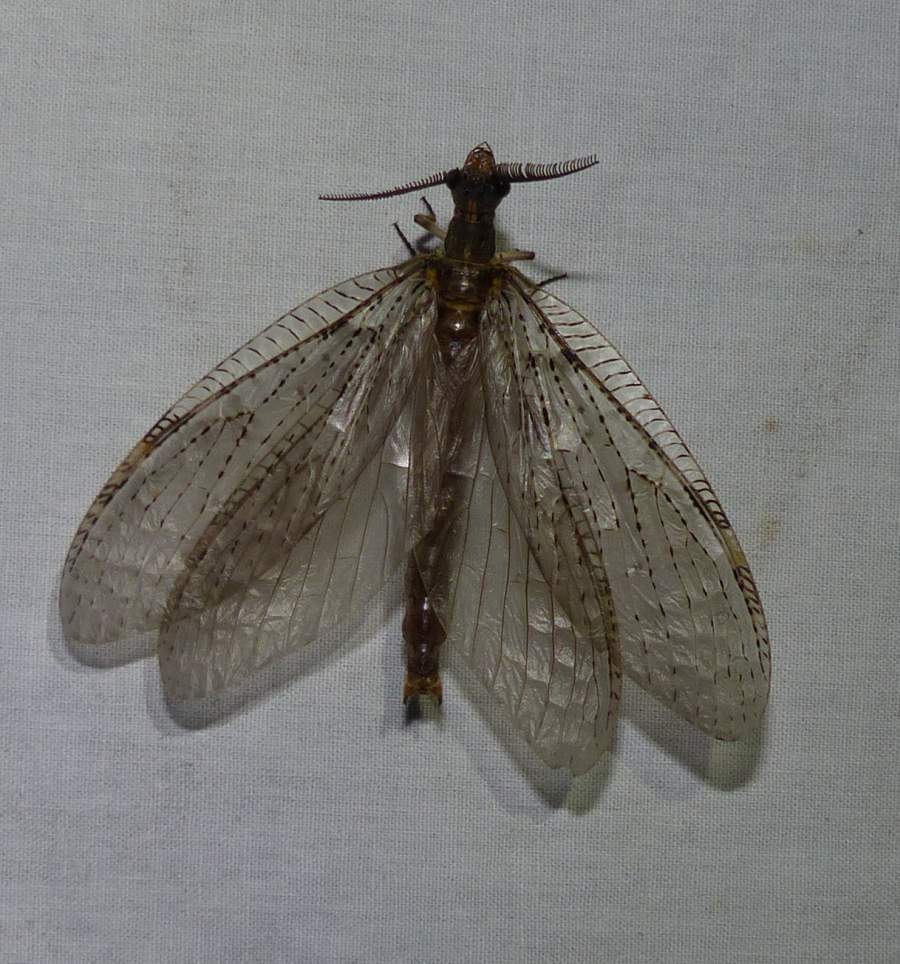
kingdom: Animalia
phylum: Arthropoda
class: Insecta
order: Megaloptera
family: Corydalidae
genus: Chauliodes
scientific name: Chauliodes pectinicornis
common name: Summer fishfly
